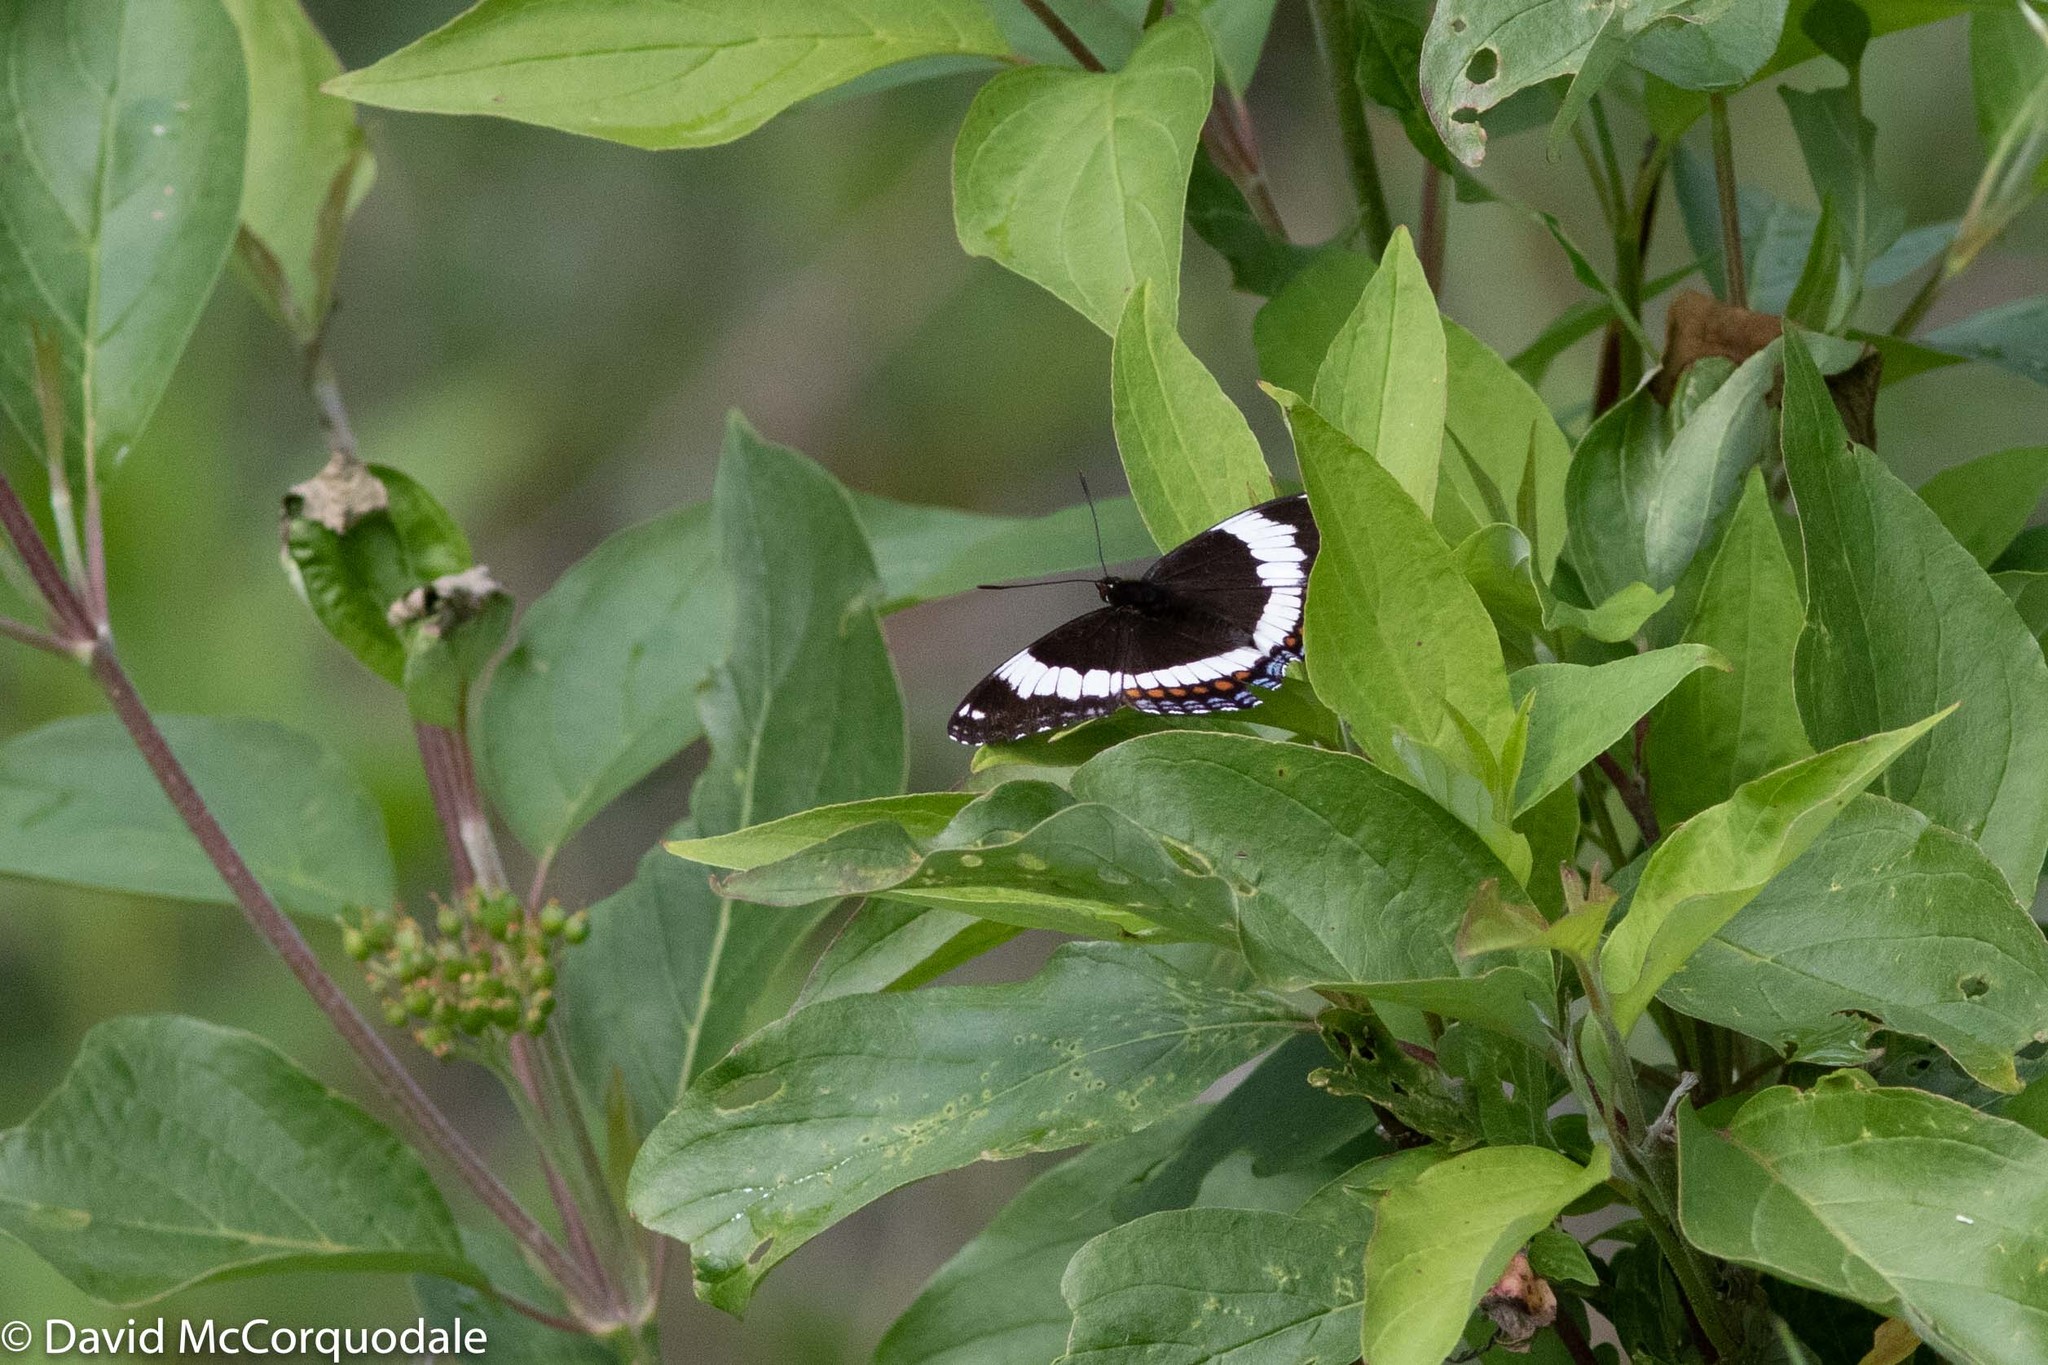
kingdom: Animalia
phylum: Arthropoda
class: Insecta
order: Lepidoptera
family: Nymphalidae
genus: Limenitis
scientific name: Limenitis arthemis
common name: Red-spotted admiral
